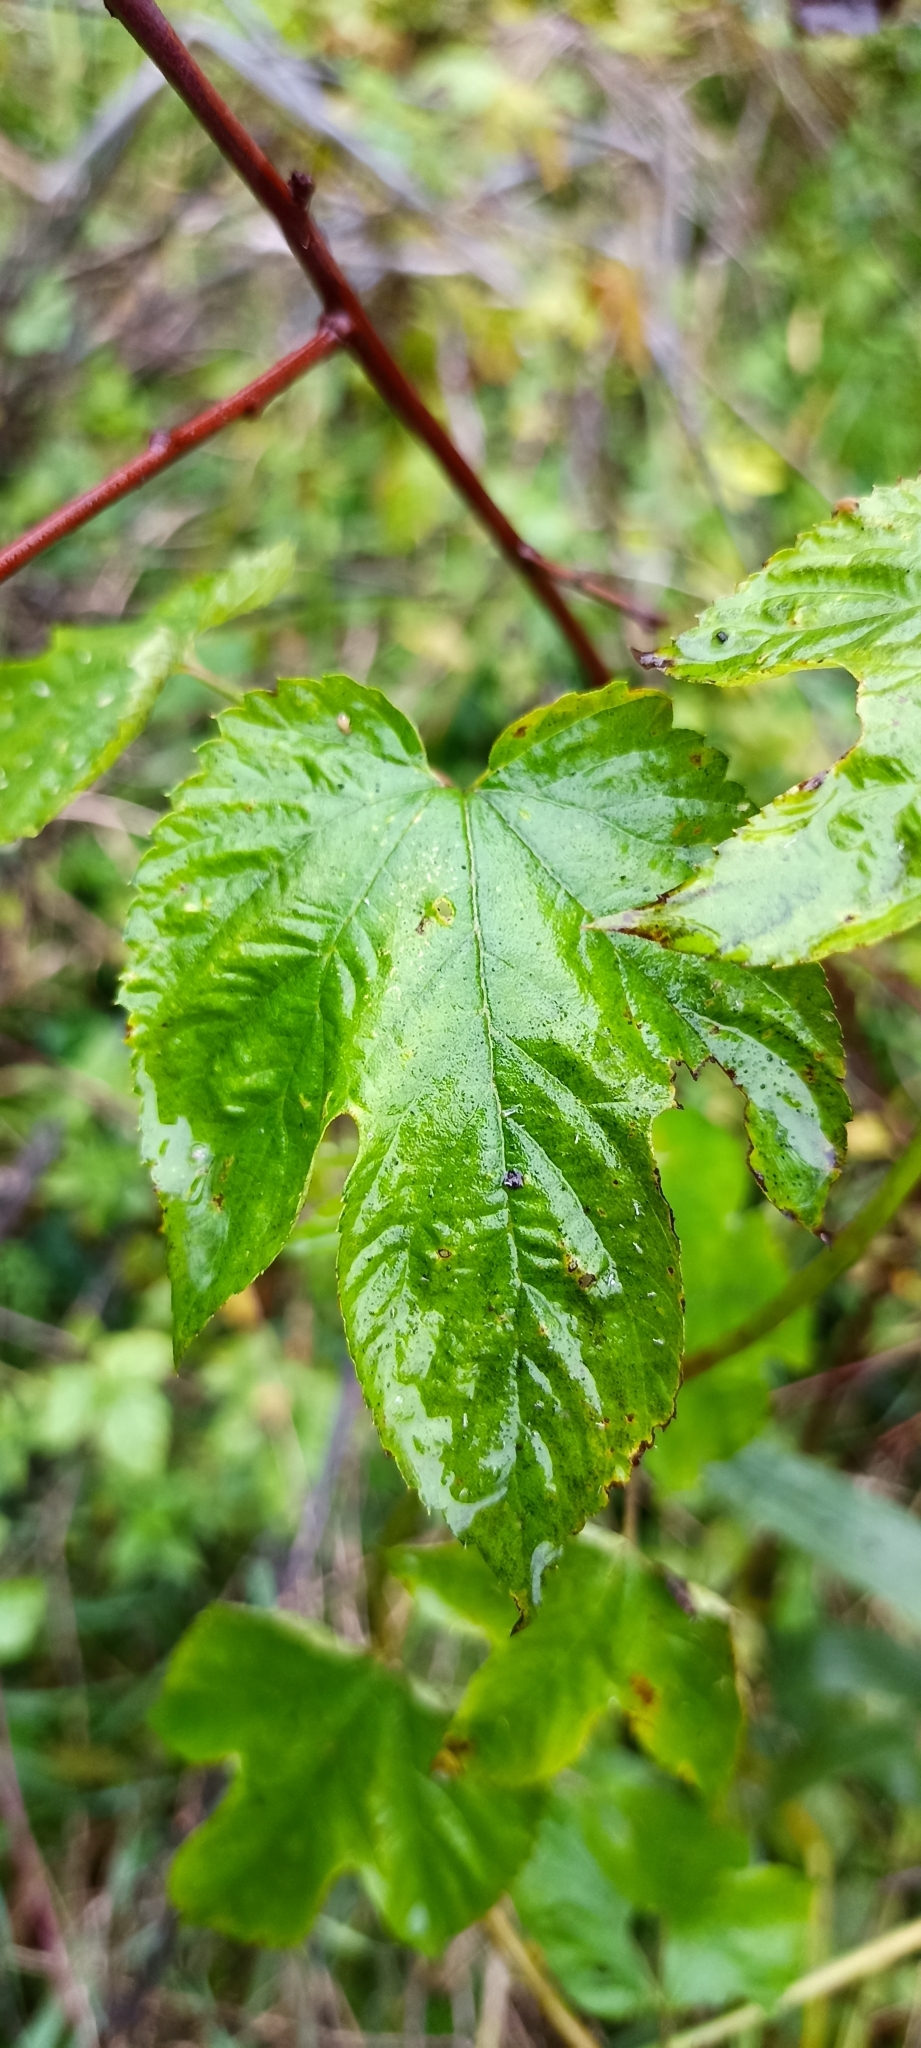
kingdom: Plantae
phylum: Tracheophyta
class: Magnoliopsida
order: Rosales
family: Cannabaceae
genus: Humulus
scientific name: Humulus lupulus
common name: Hop
